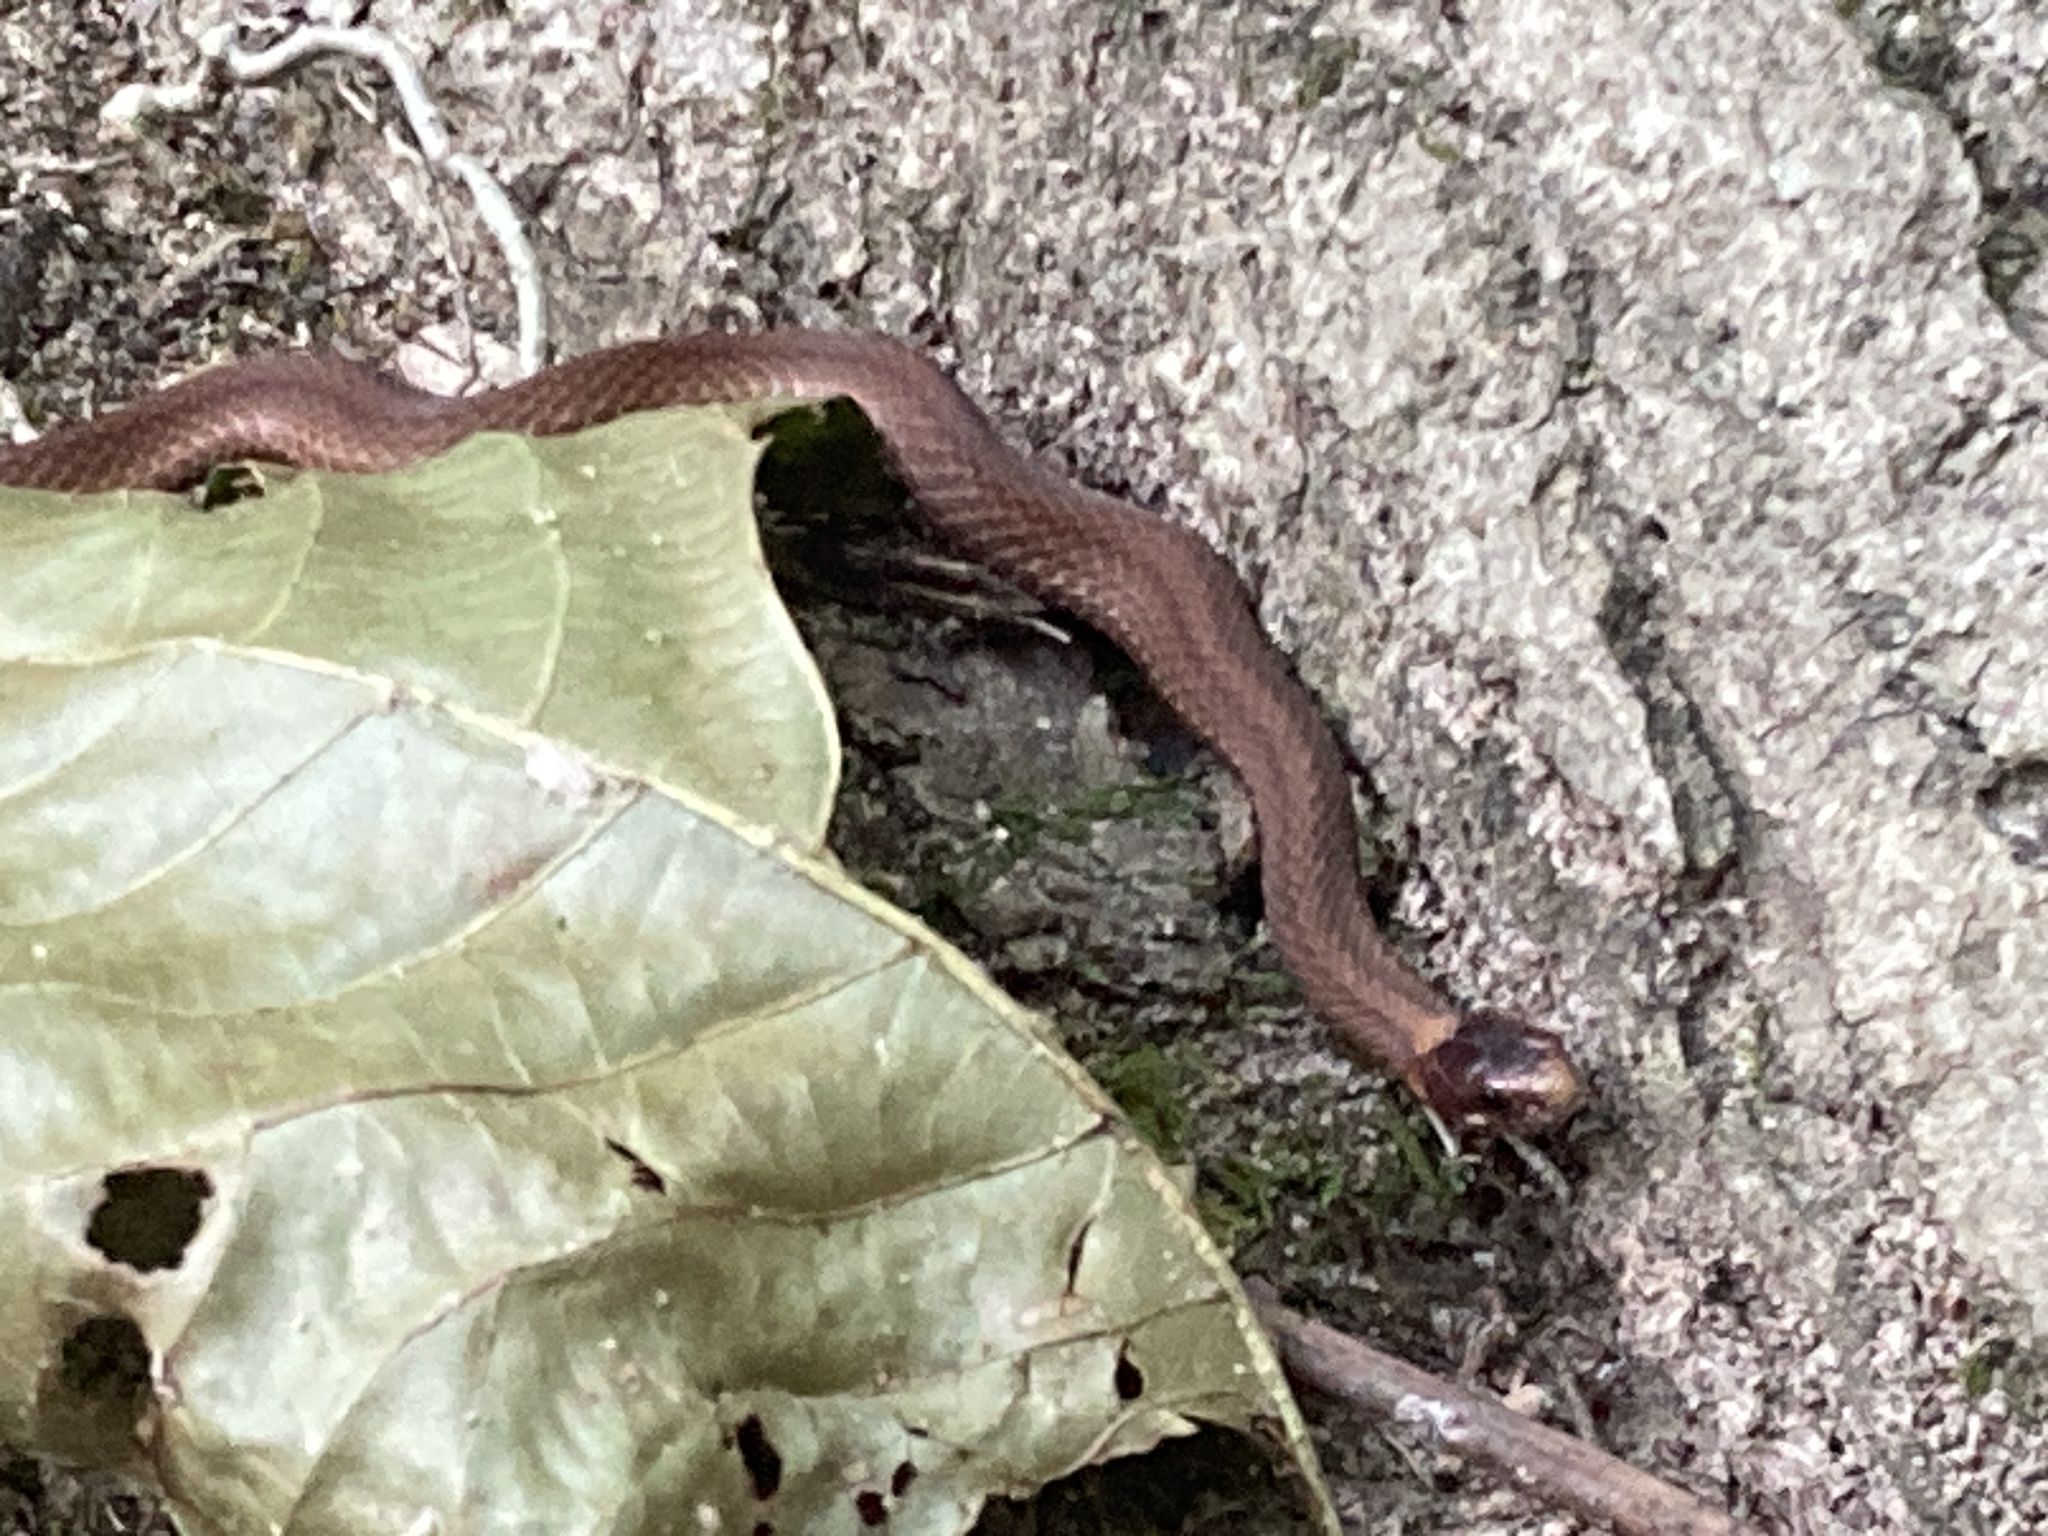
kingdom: Animalia
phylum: Chordata
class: Squamata
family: Colubridae
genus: Storeria
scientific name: Storeria occipitomaculata
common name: Redbelly snake
